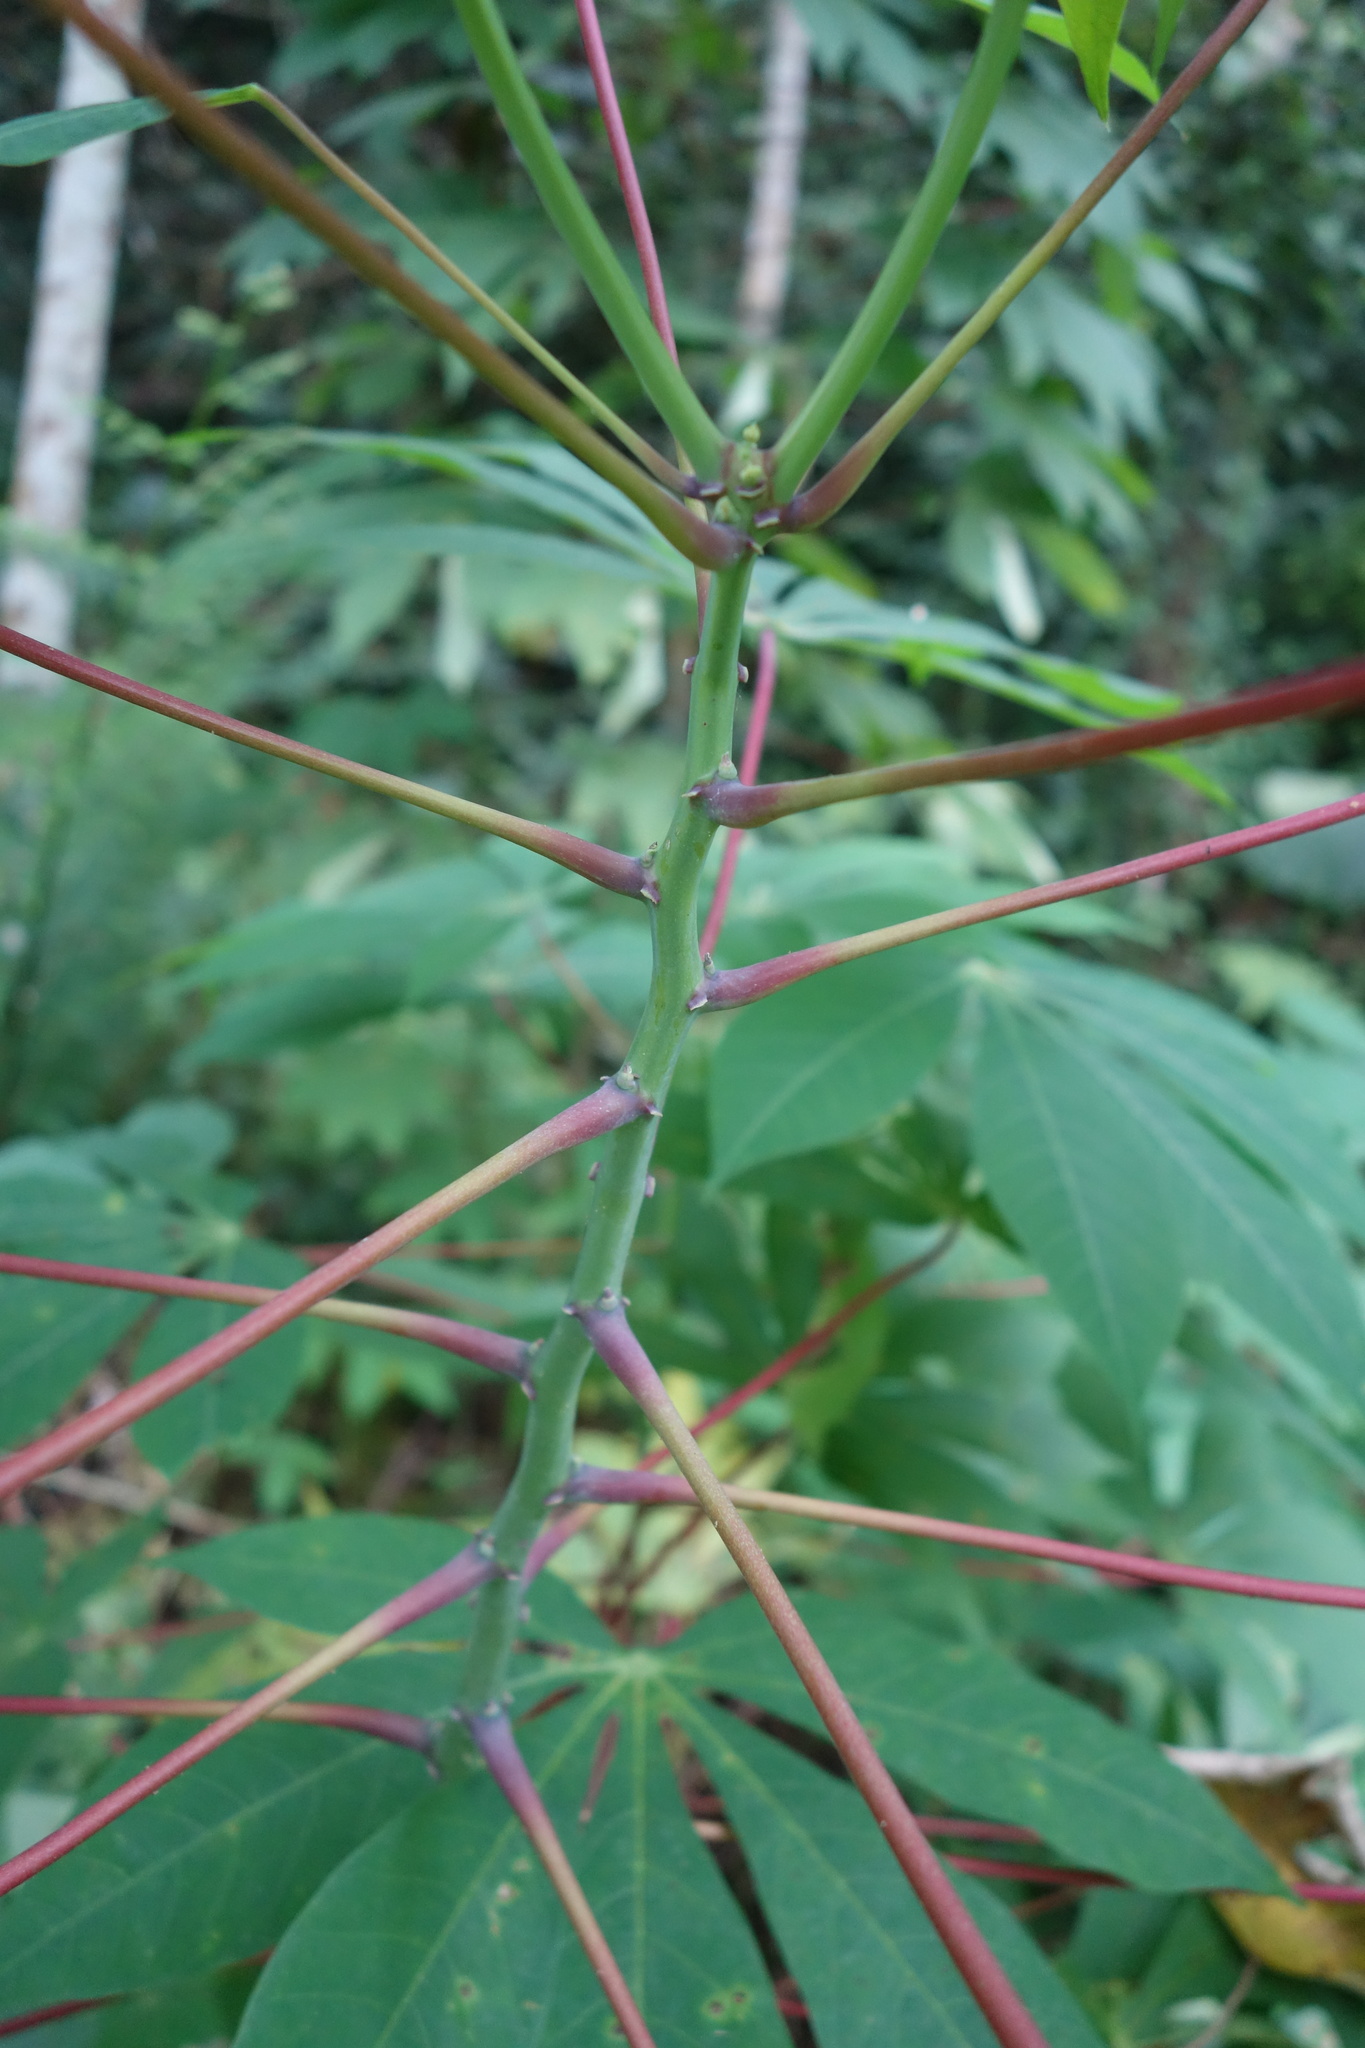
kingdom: Plantae
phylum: Tracheophyta
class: Magnoliopsida
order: Malpighiales
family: Euphorbiaceae
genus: Manihot
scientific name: Manihot esculenta
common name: Cassava
